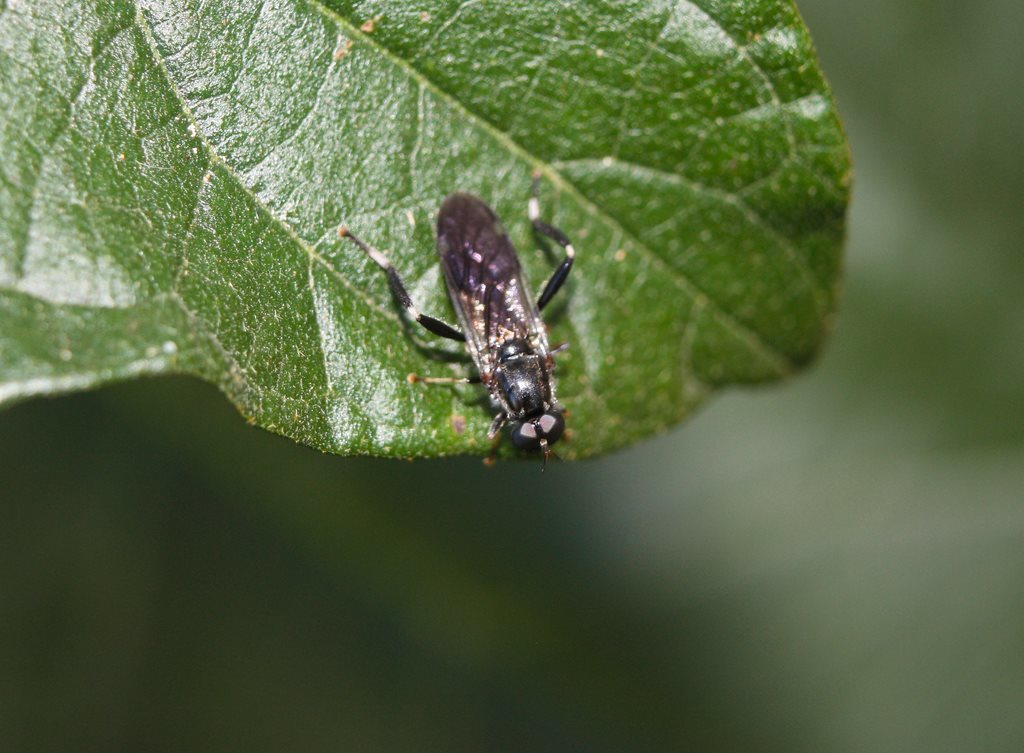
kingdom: Animalia
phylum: Arthropoda
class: Insecta
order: Diptera
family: Stratiomyidae
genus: Exaireta
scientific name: Exaireta spinigera
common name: Blue soldier fly
